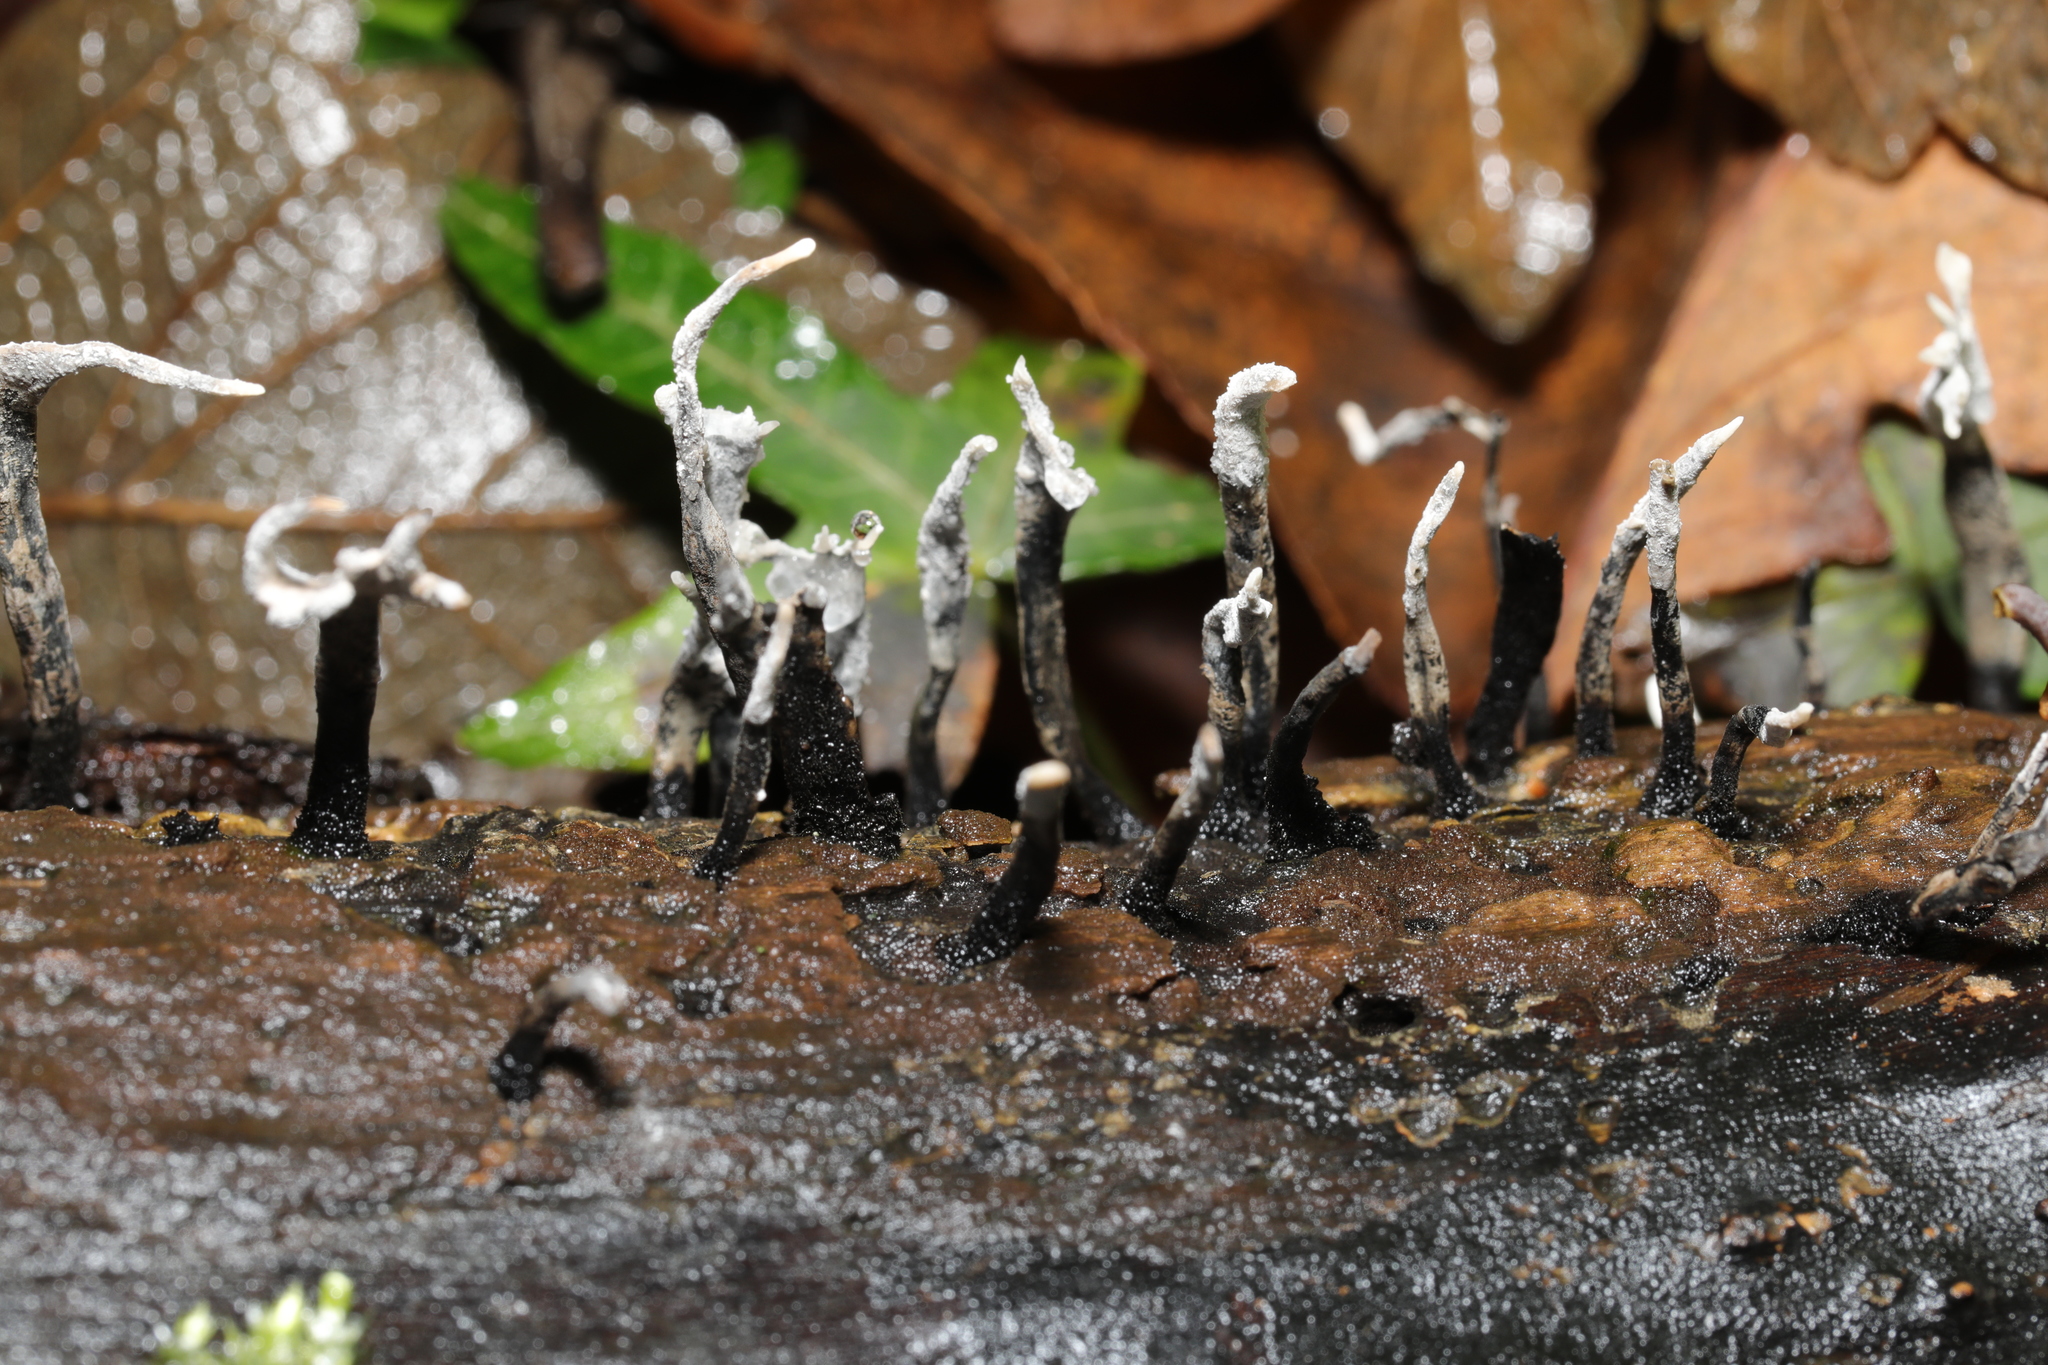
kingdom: Fungi
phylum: Ascomycota
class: Sordariomycetes
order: Xylariales
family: Xylariaceae
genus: Xylaria
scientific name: Xylaria hypoxylon
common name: Candle-snuff fungus
